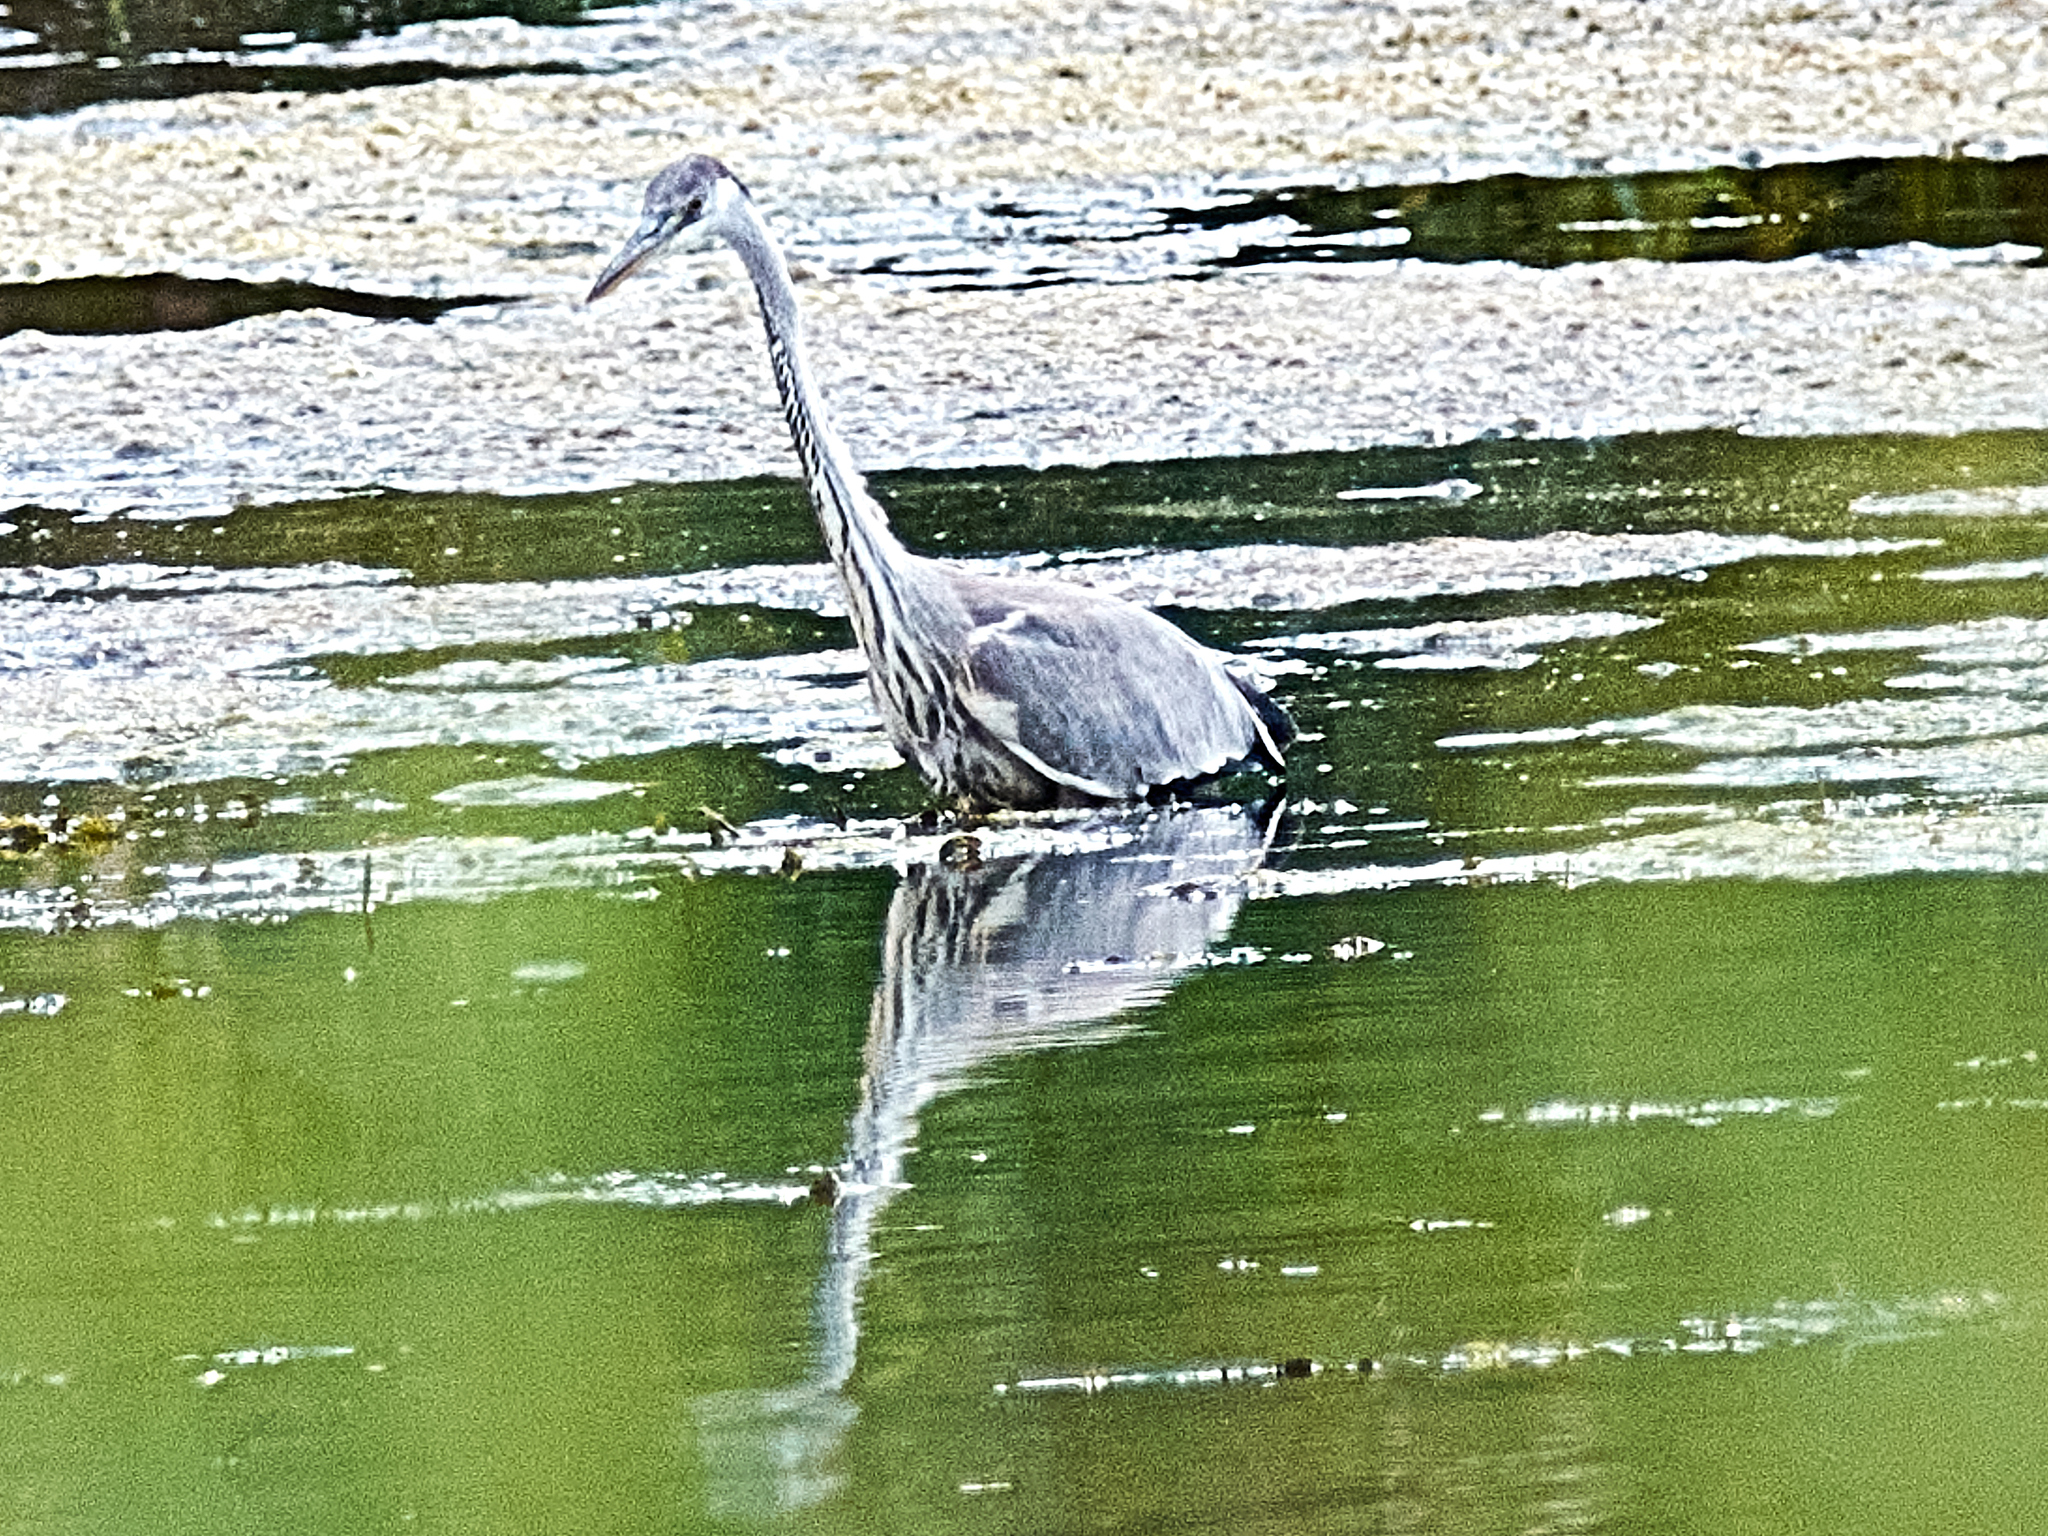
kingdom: Animalia
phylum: Chordata
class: Aves
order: Pelecaniformes
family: Ardeidae
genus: Ardea
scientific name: Ardea cinerea
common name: Grey heron
